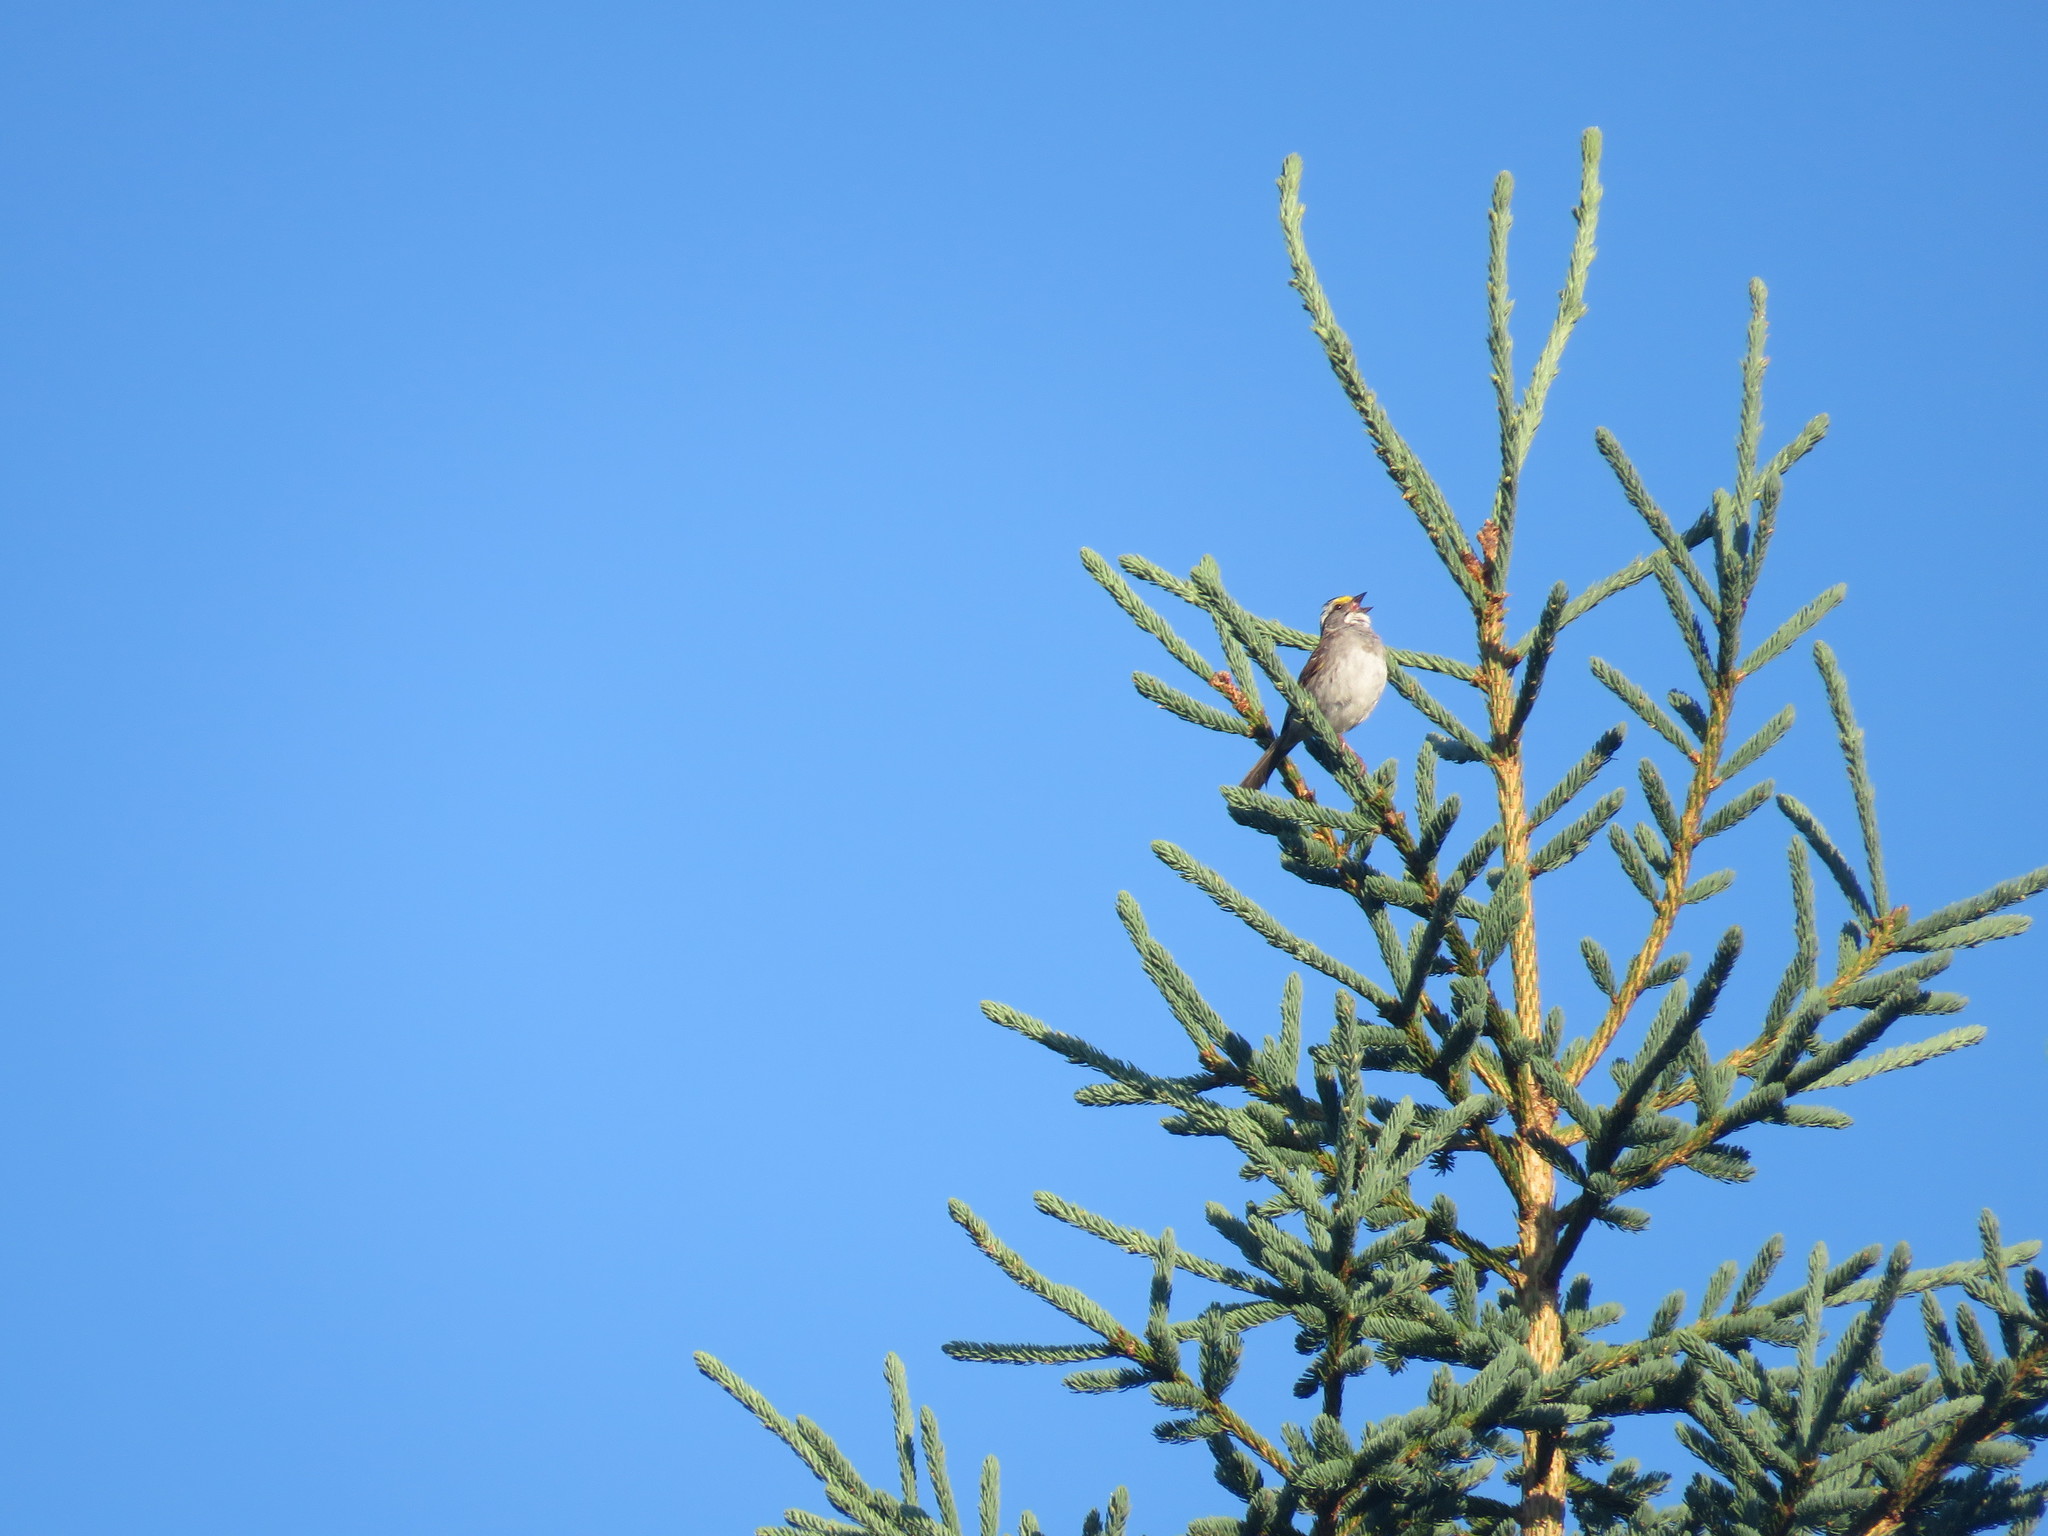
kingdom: Animalia
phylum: Chordata
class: Aves
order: Passeriformes
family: Passerellidae
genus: Zonotrichia
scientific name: Zonotrichia albicollis
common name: White-throated sparrow
